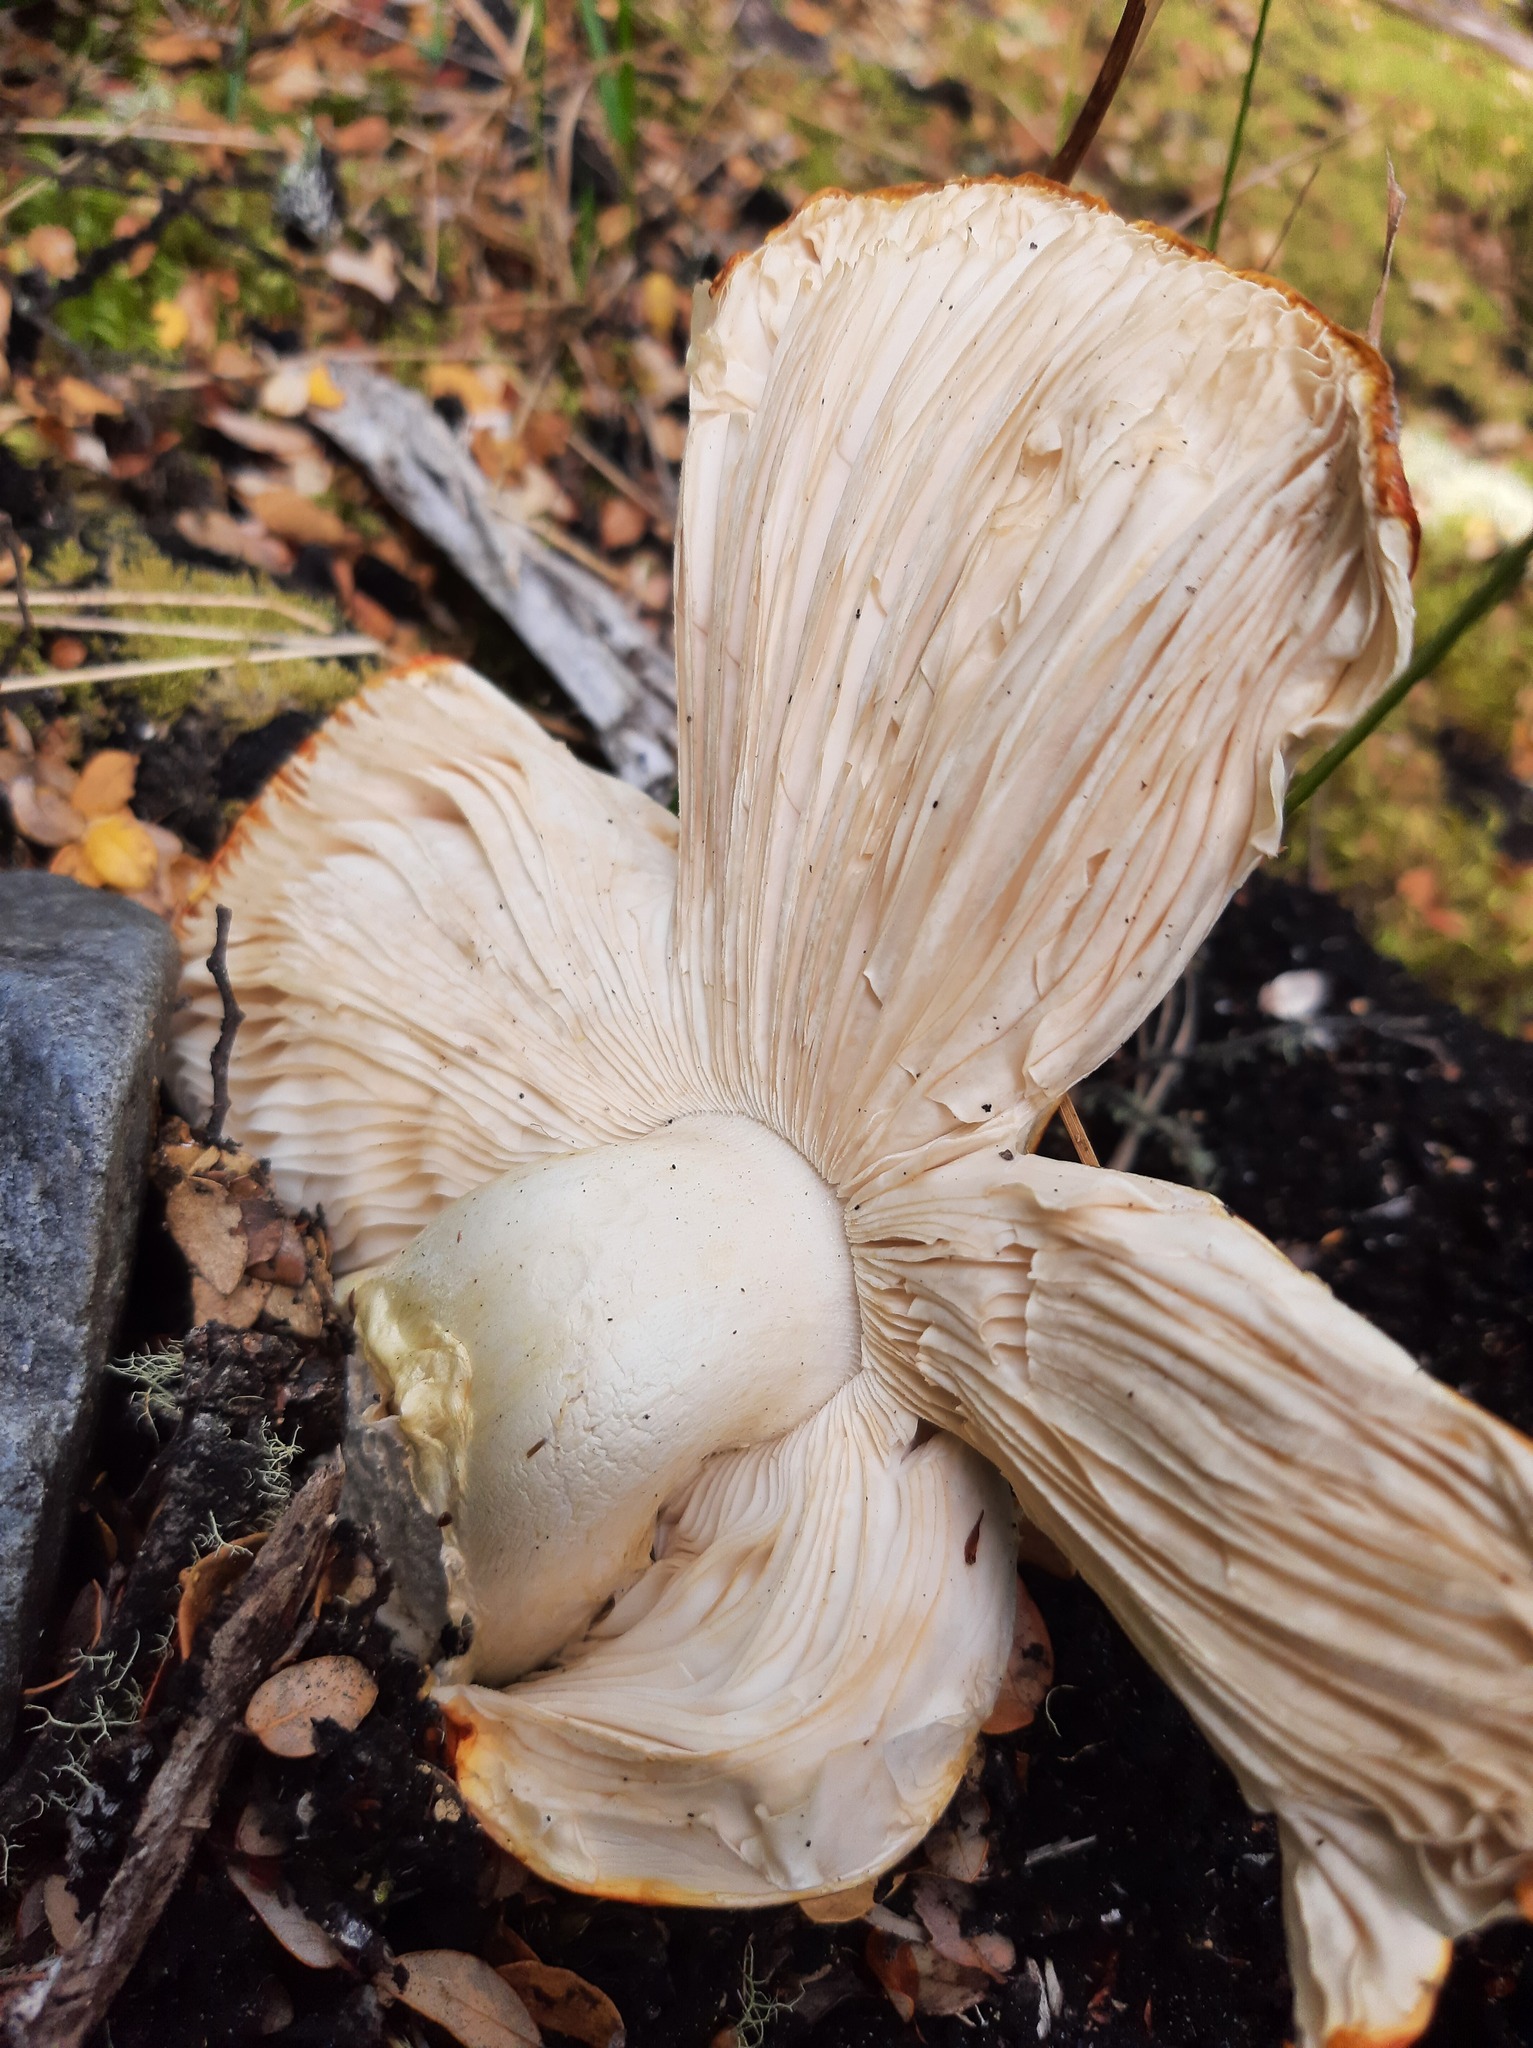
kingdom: Fungi
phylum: Basidiomycota
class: Agaricomycetes
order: Agaricales
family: Amanitaceae
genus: Amanita
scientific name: Amanita muscaria
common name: Fly agaric
